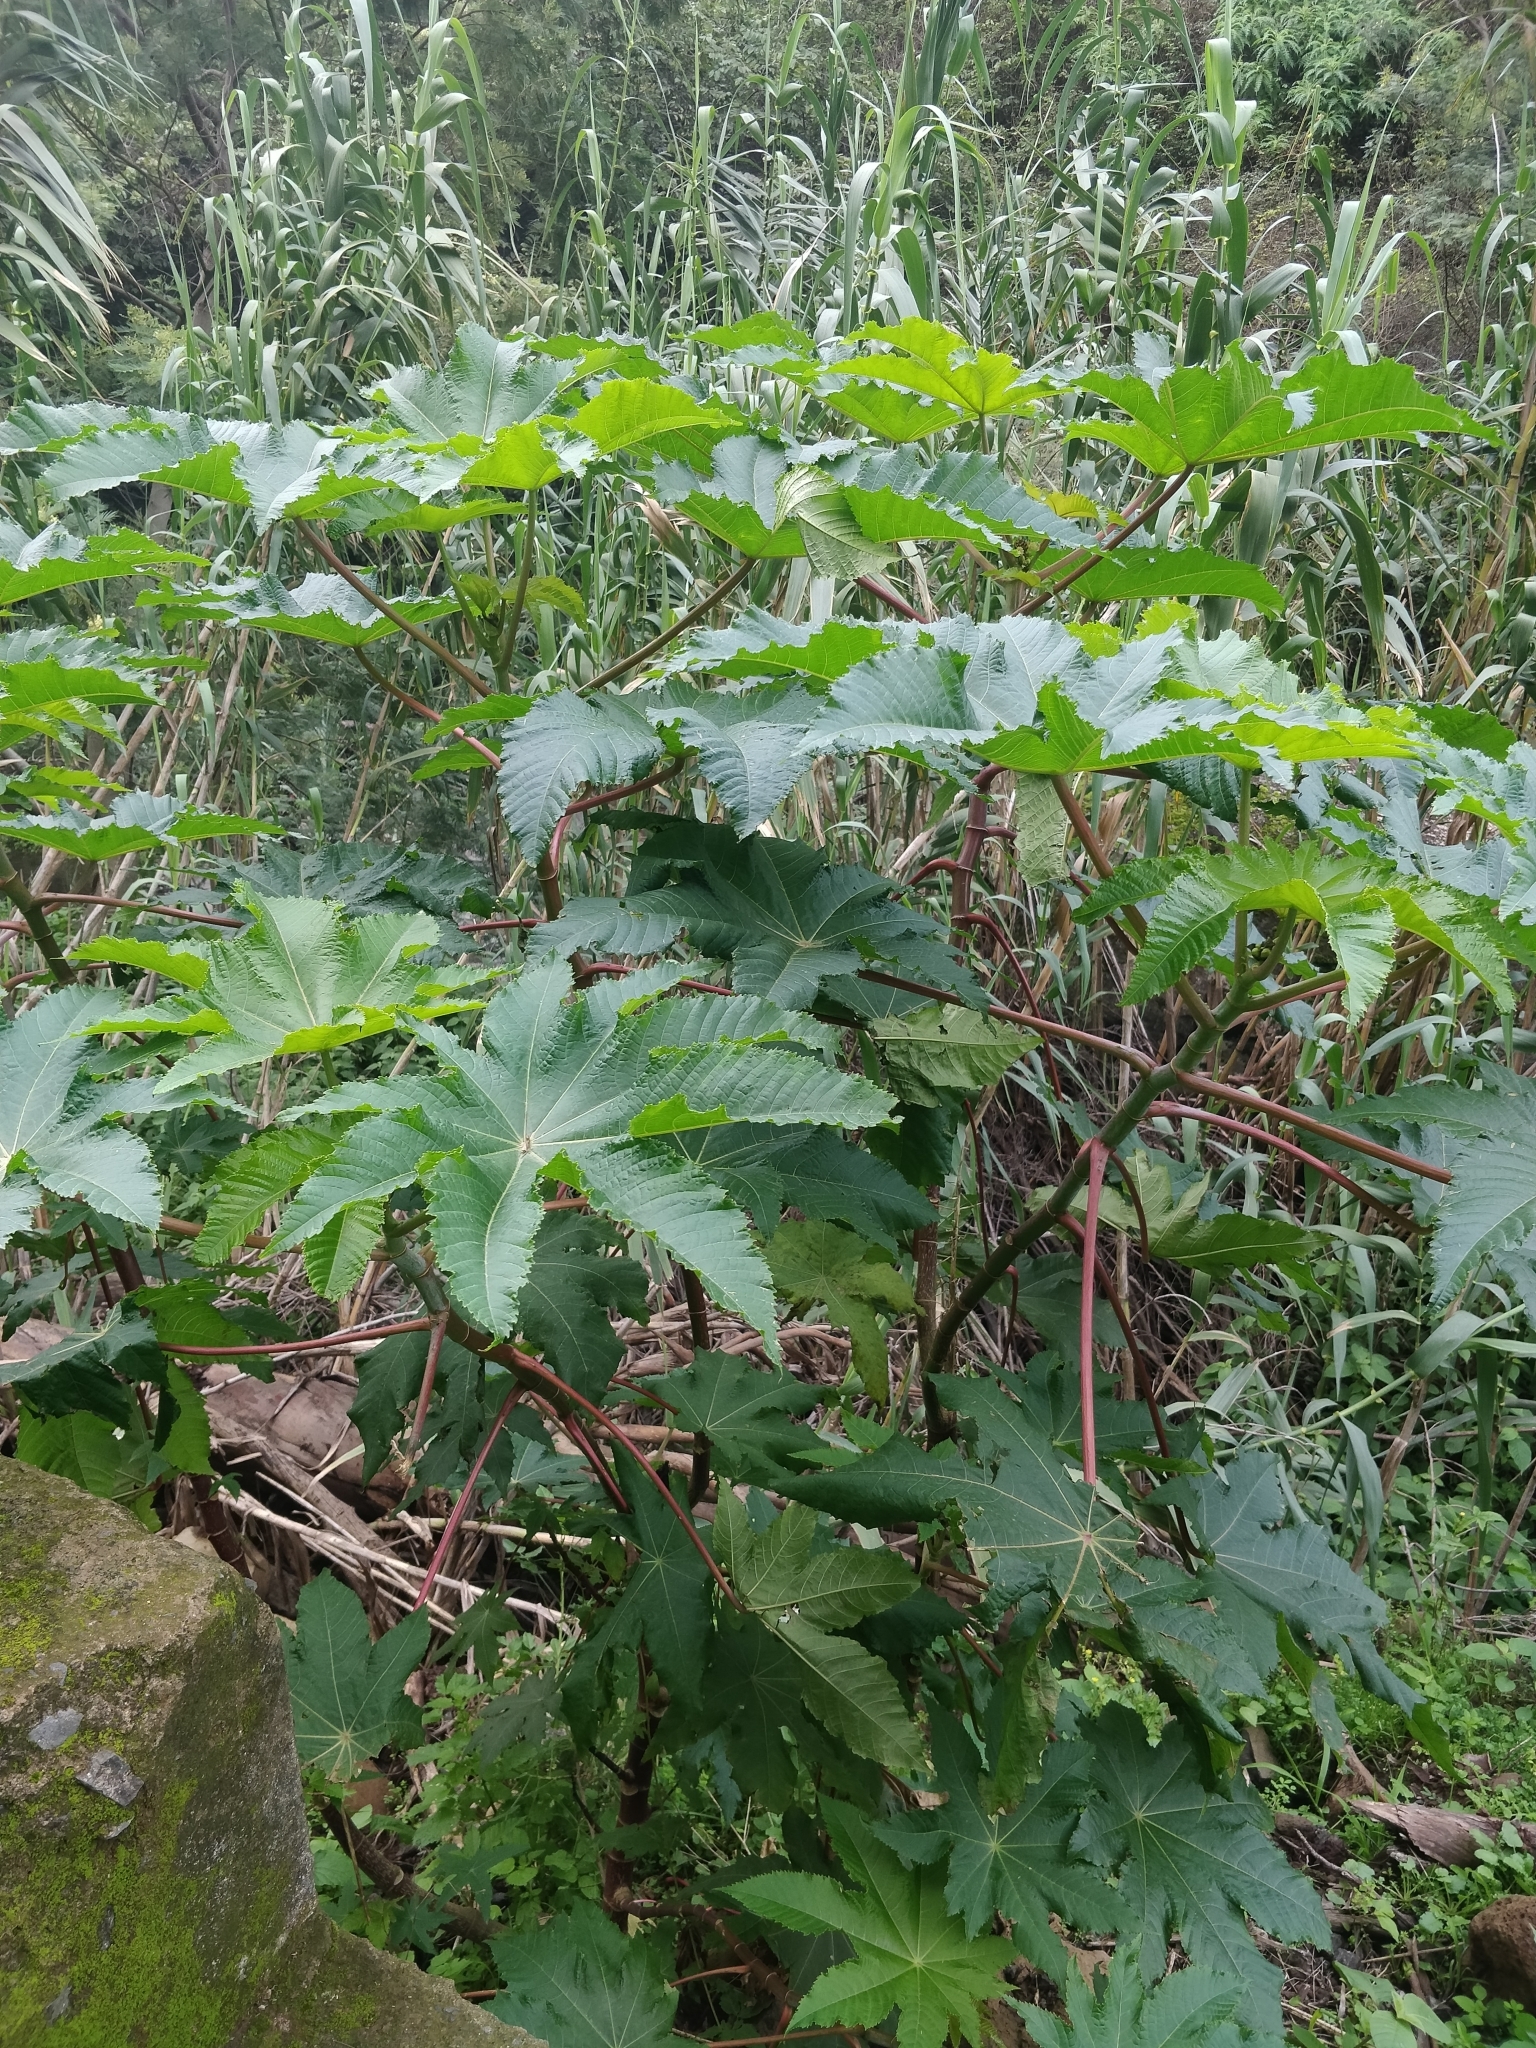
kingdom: Plantae
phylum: Tracheophyta
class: Magnoliopsida
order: Malpighiales
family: Euphorbiaceae
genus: Ricinus
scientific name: Ricinus communis
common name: Castor-oil-plant
